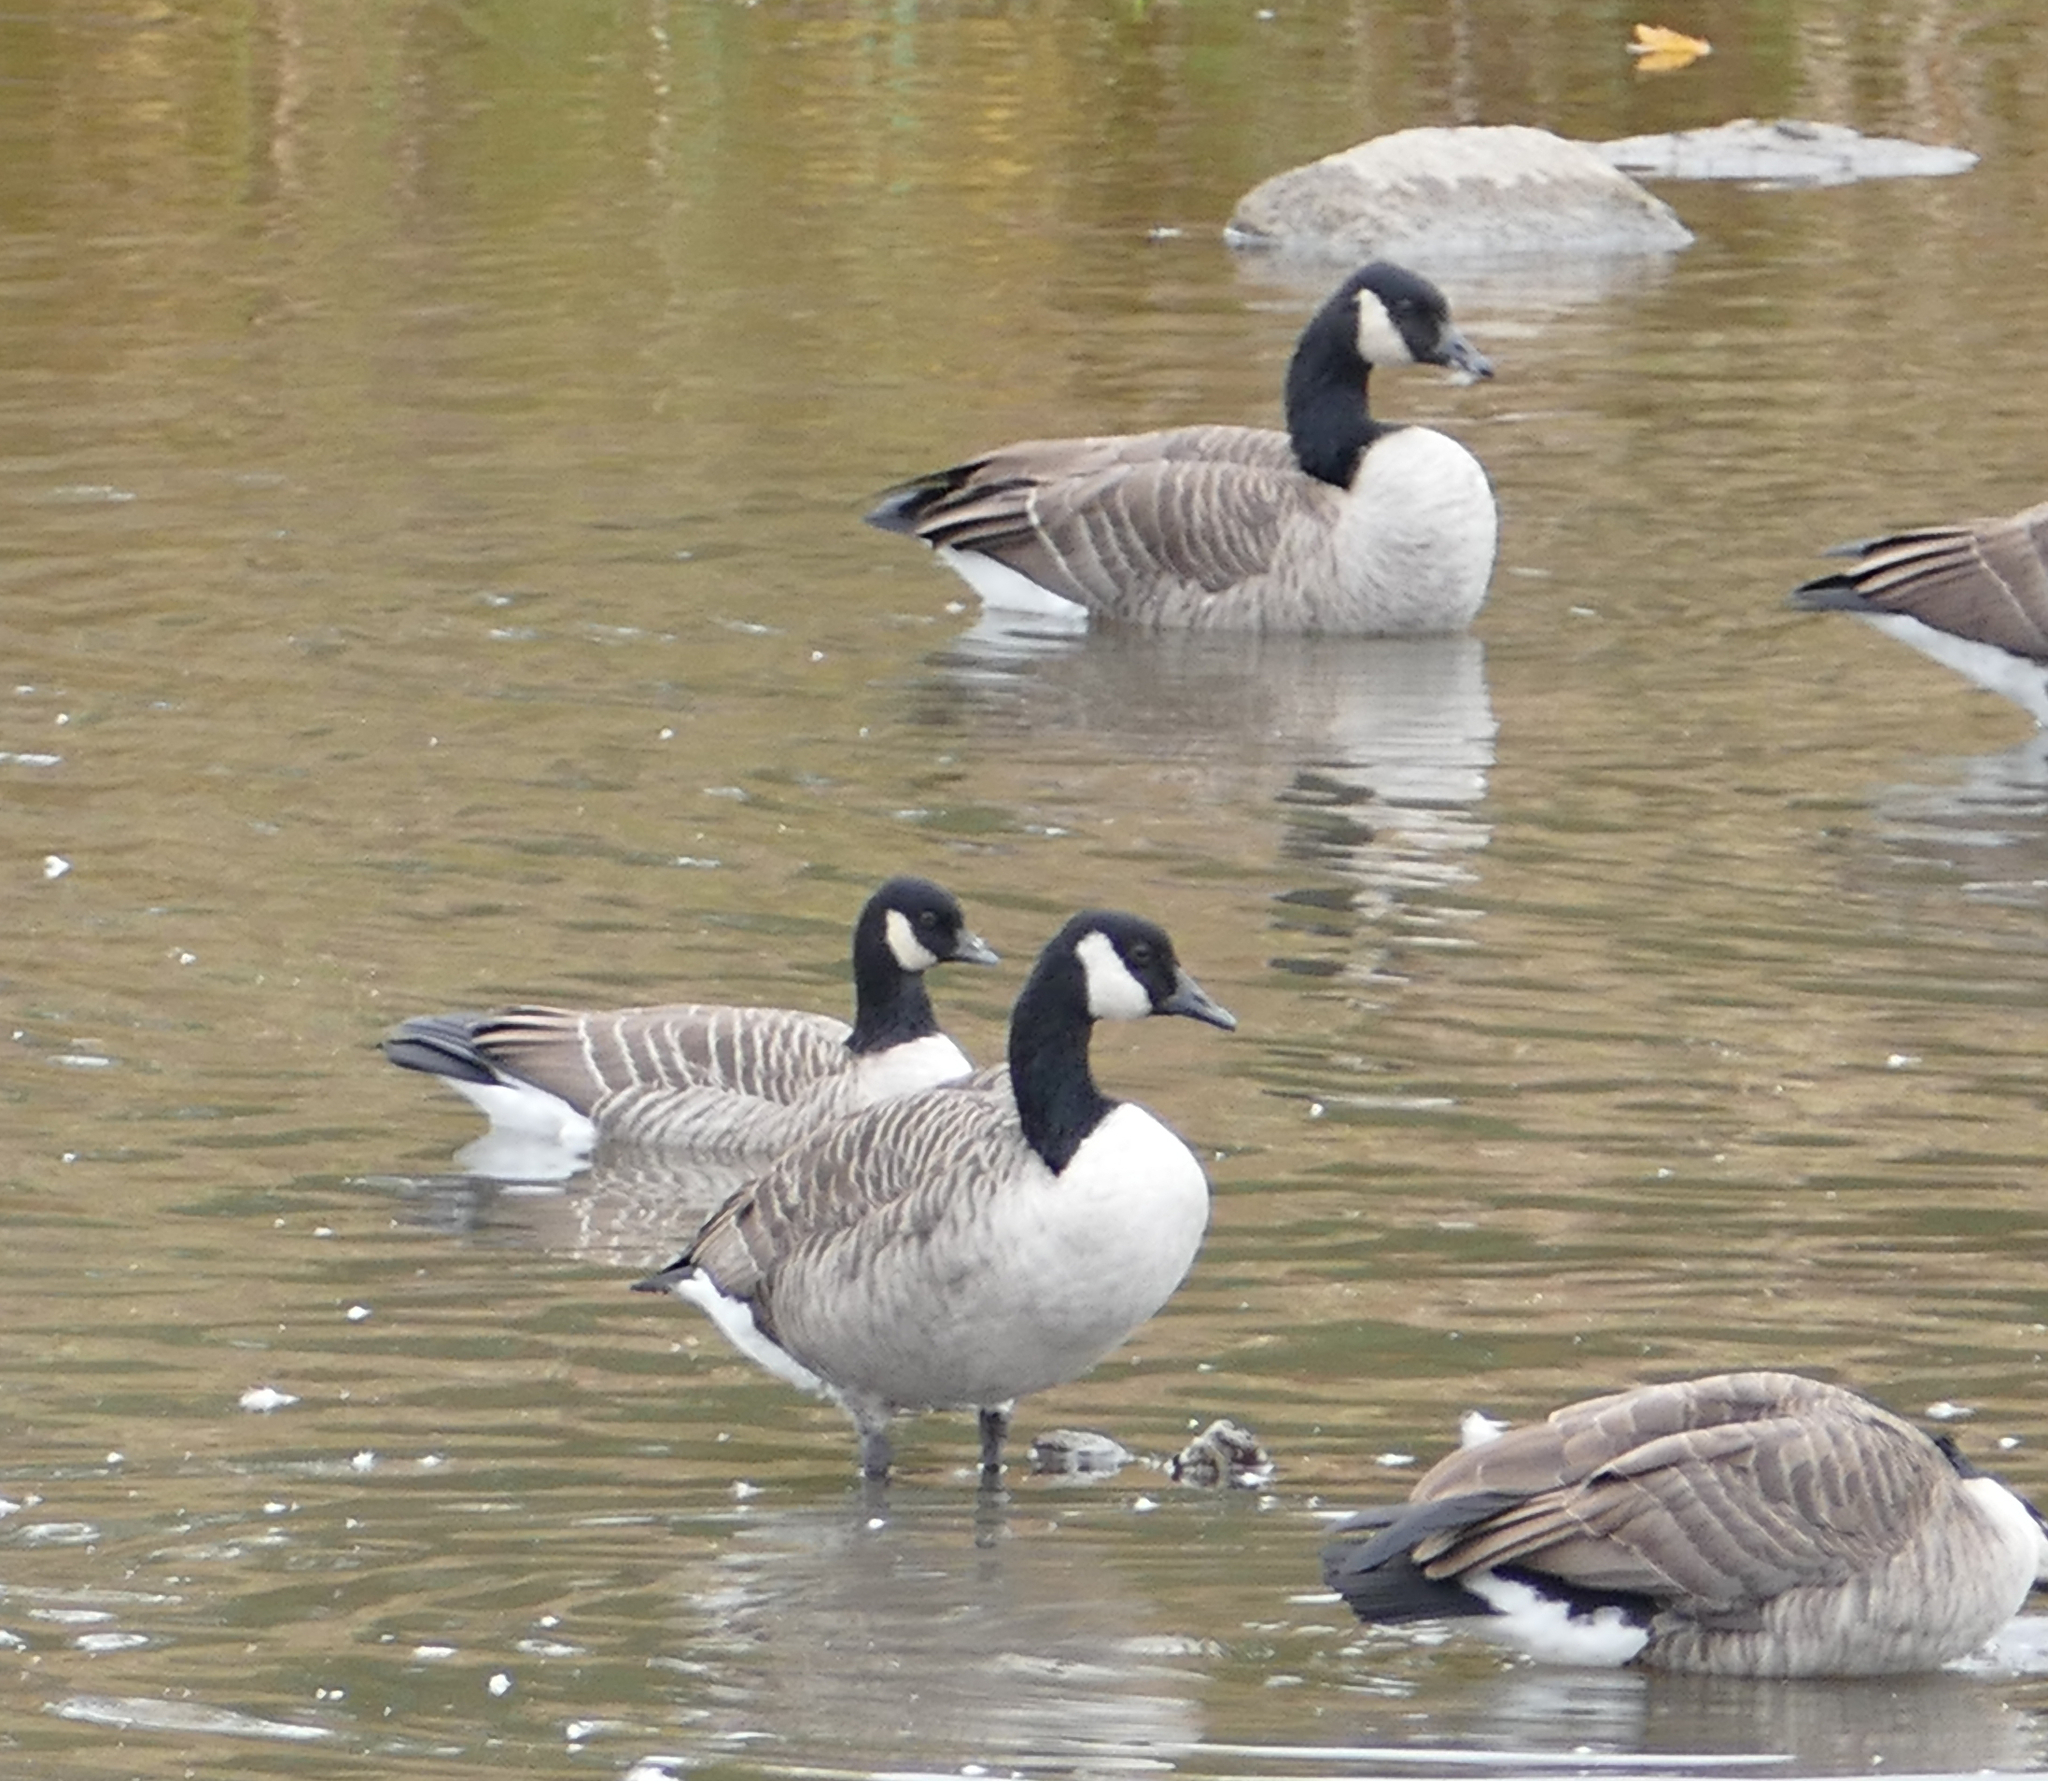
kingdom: Animalia
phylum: Chordata
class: Aves
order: Anseriformes
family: Anatidae
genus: Branta
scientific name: Branta canadensis
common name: Canada goose
